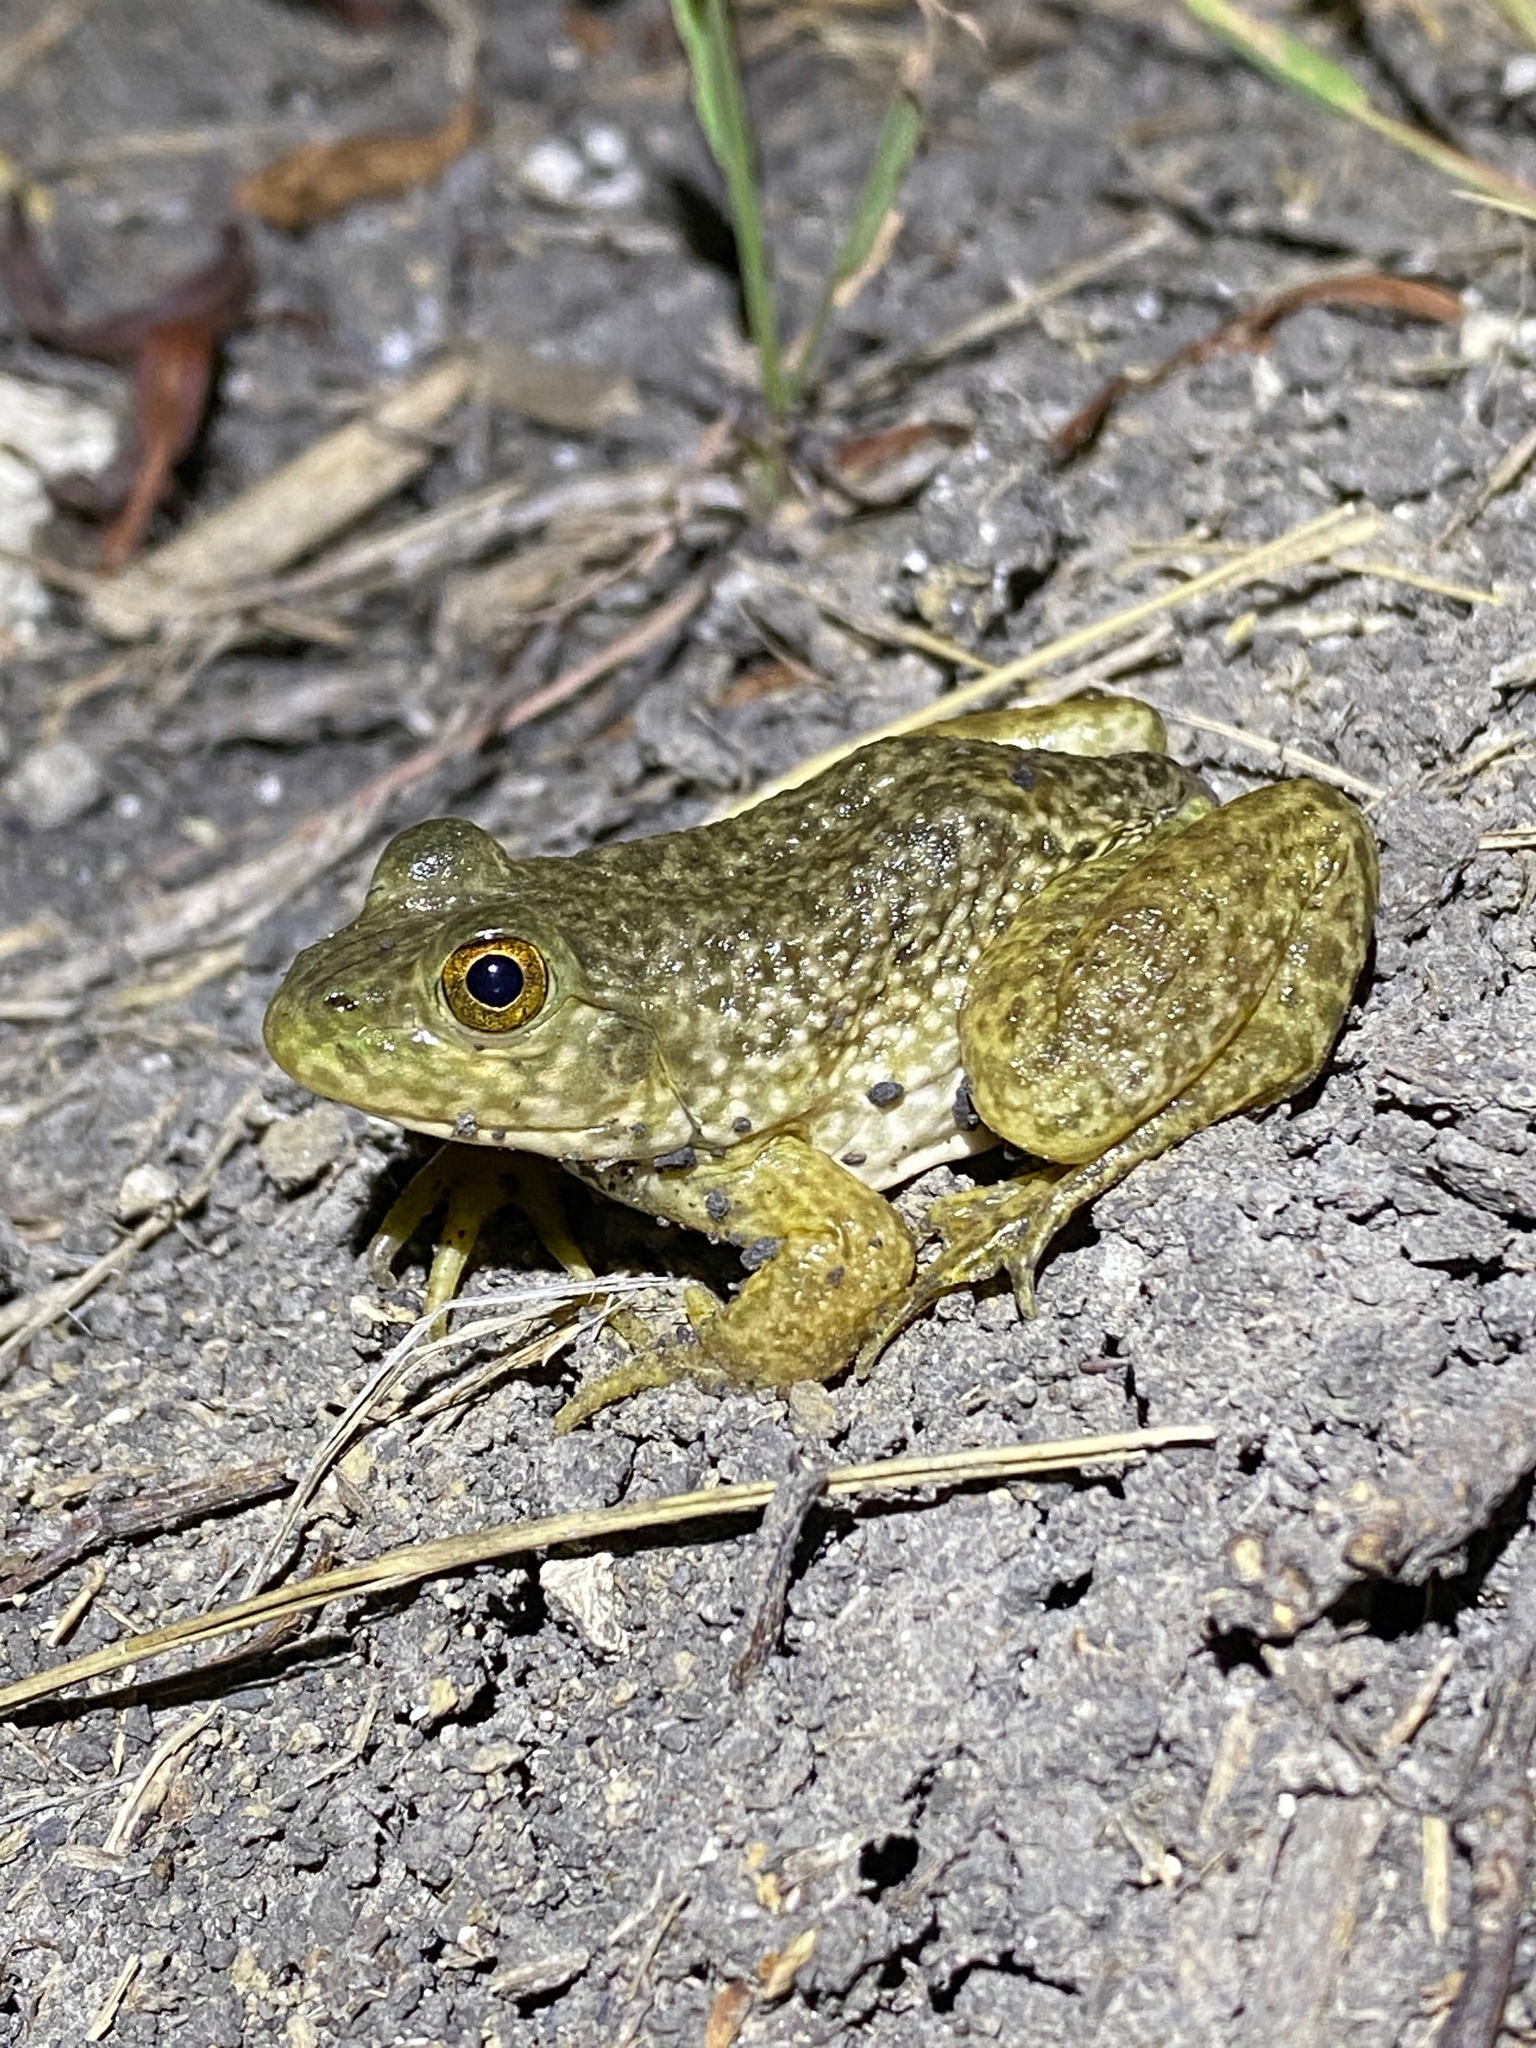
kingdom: Animalia
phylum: Chordata
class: Amphibia
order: Anura
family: Ranidae
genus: Lithobates
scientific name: Lithobates catesbeianus
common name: American bullfrog
